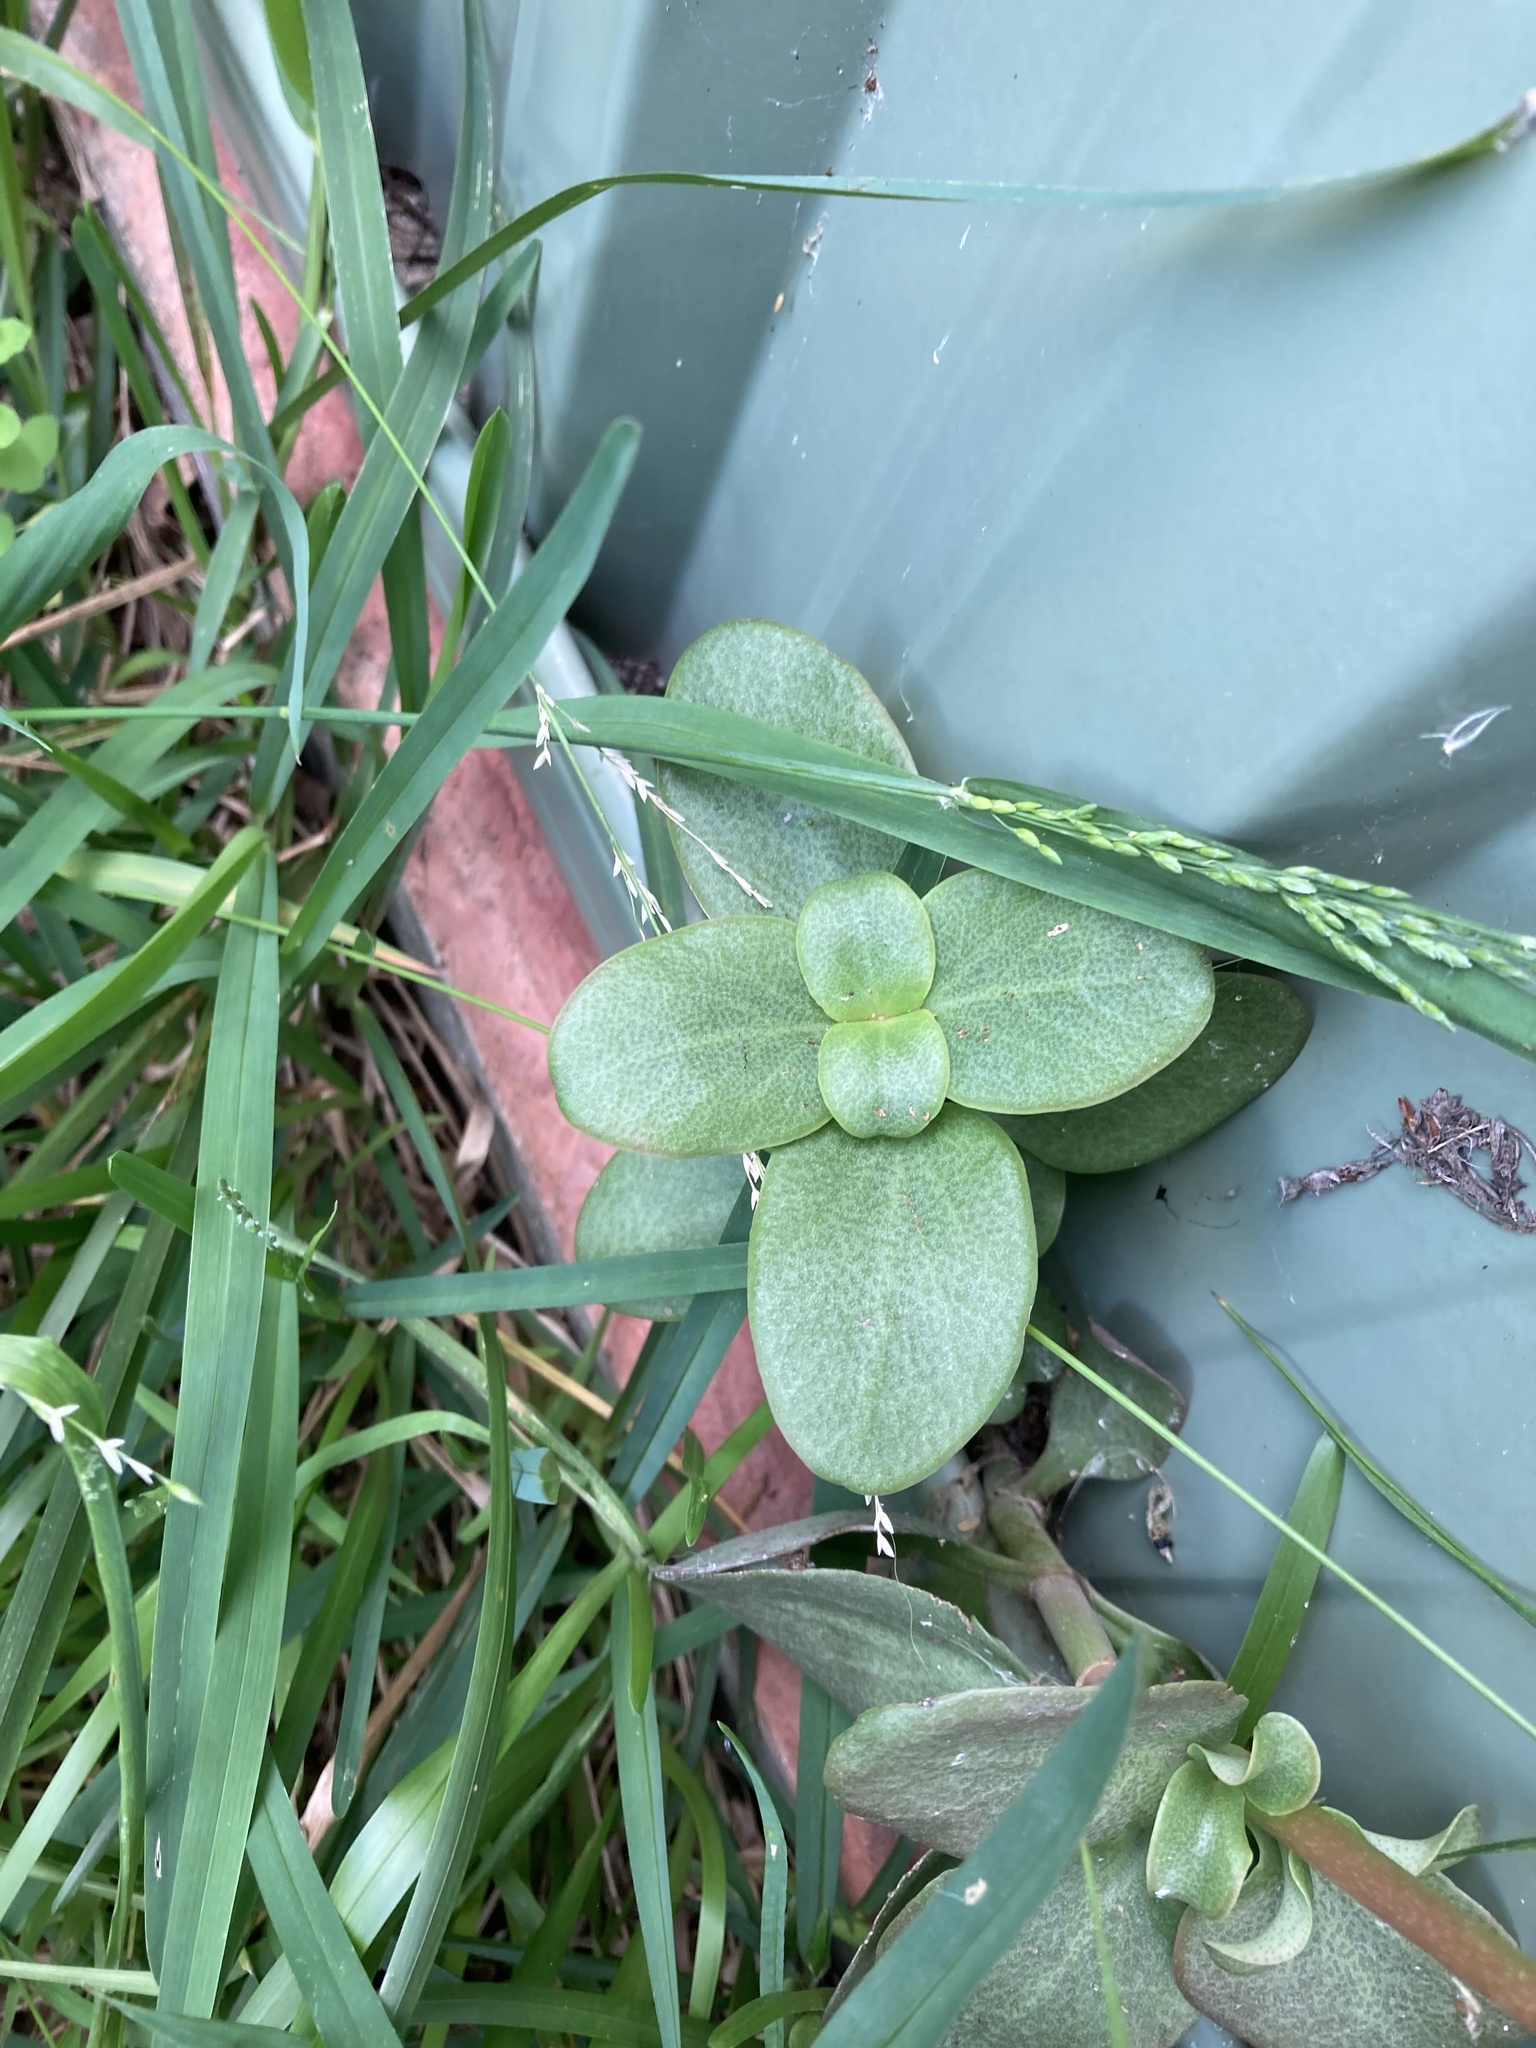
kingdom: Plantae
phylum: Tracheophyta
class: Magnoliopsida
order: Saxifragales
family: Crassulaceae
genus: Crassula
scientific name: Crassula multicava
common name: Cape province pygmyweed
